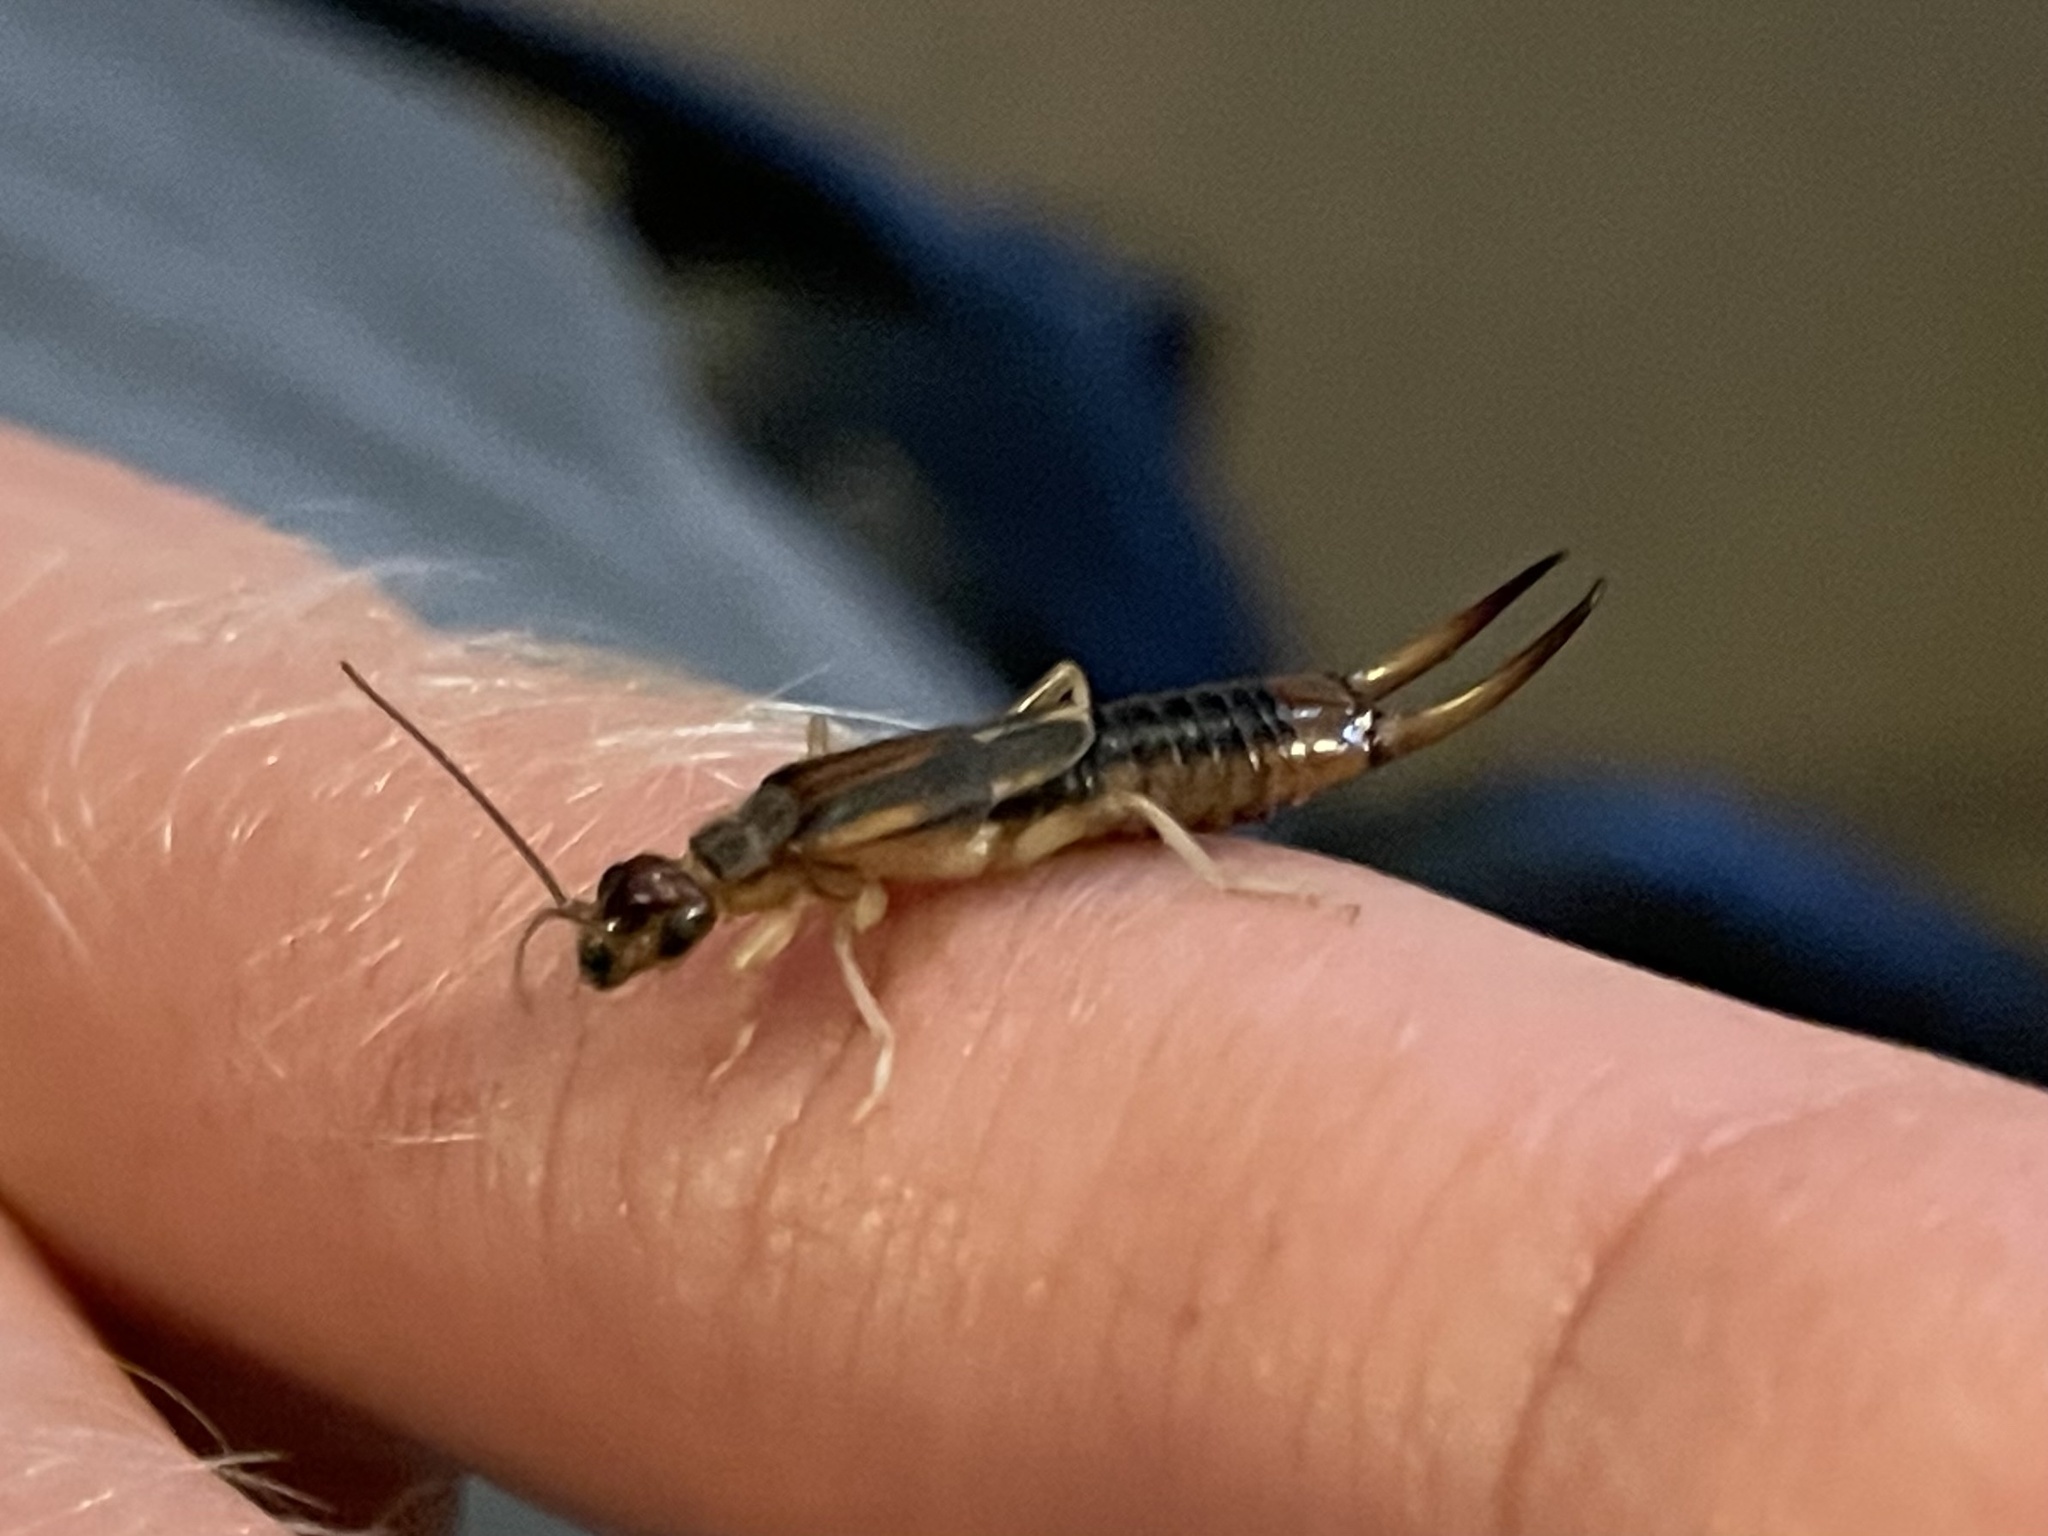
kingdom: Animalia
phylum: Arthropoda
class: Insecta
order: Dermaptera
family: Labiduridae
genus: Labidura
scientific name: Labidura riparia
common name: Striped earwig
